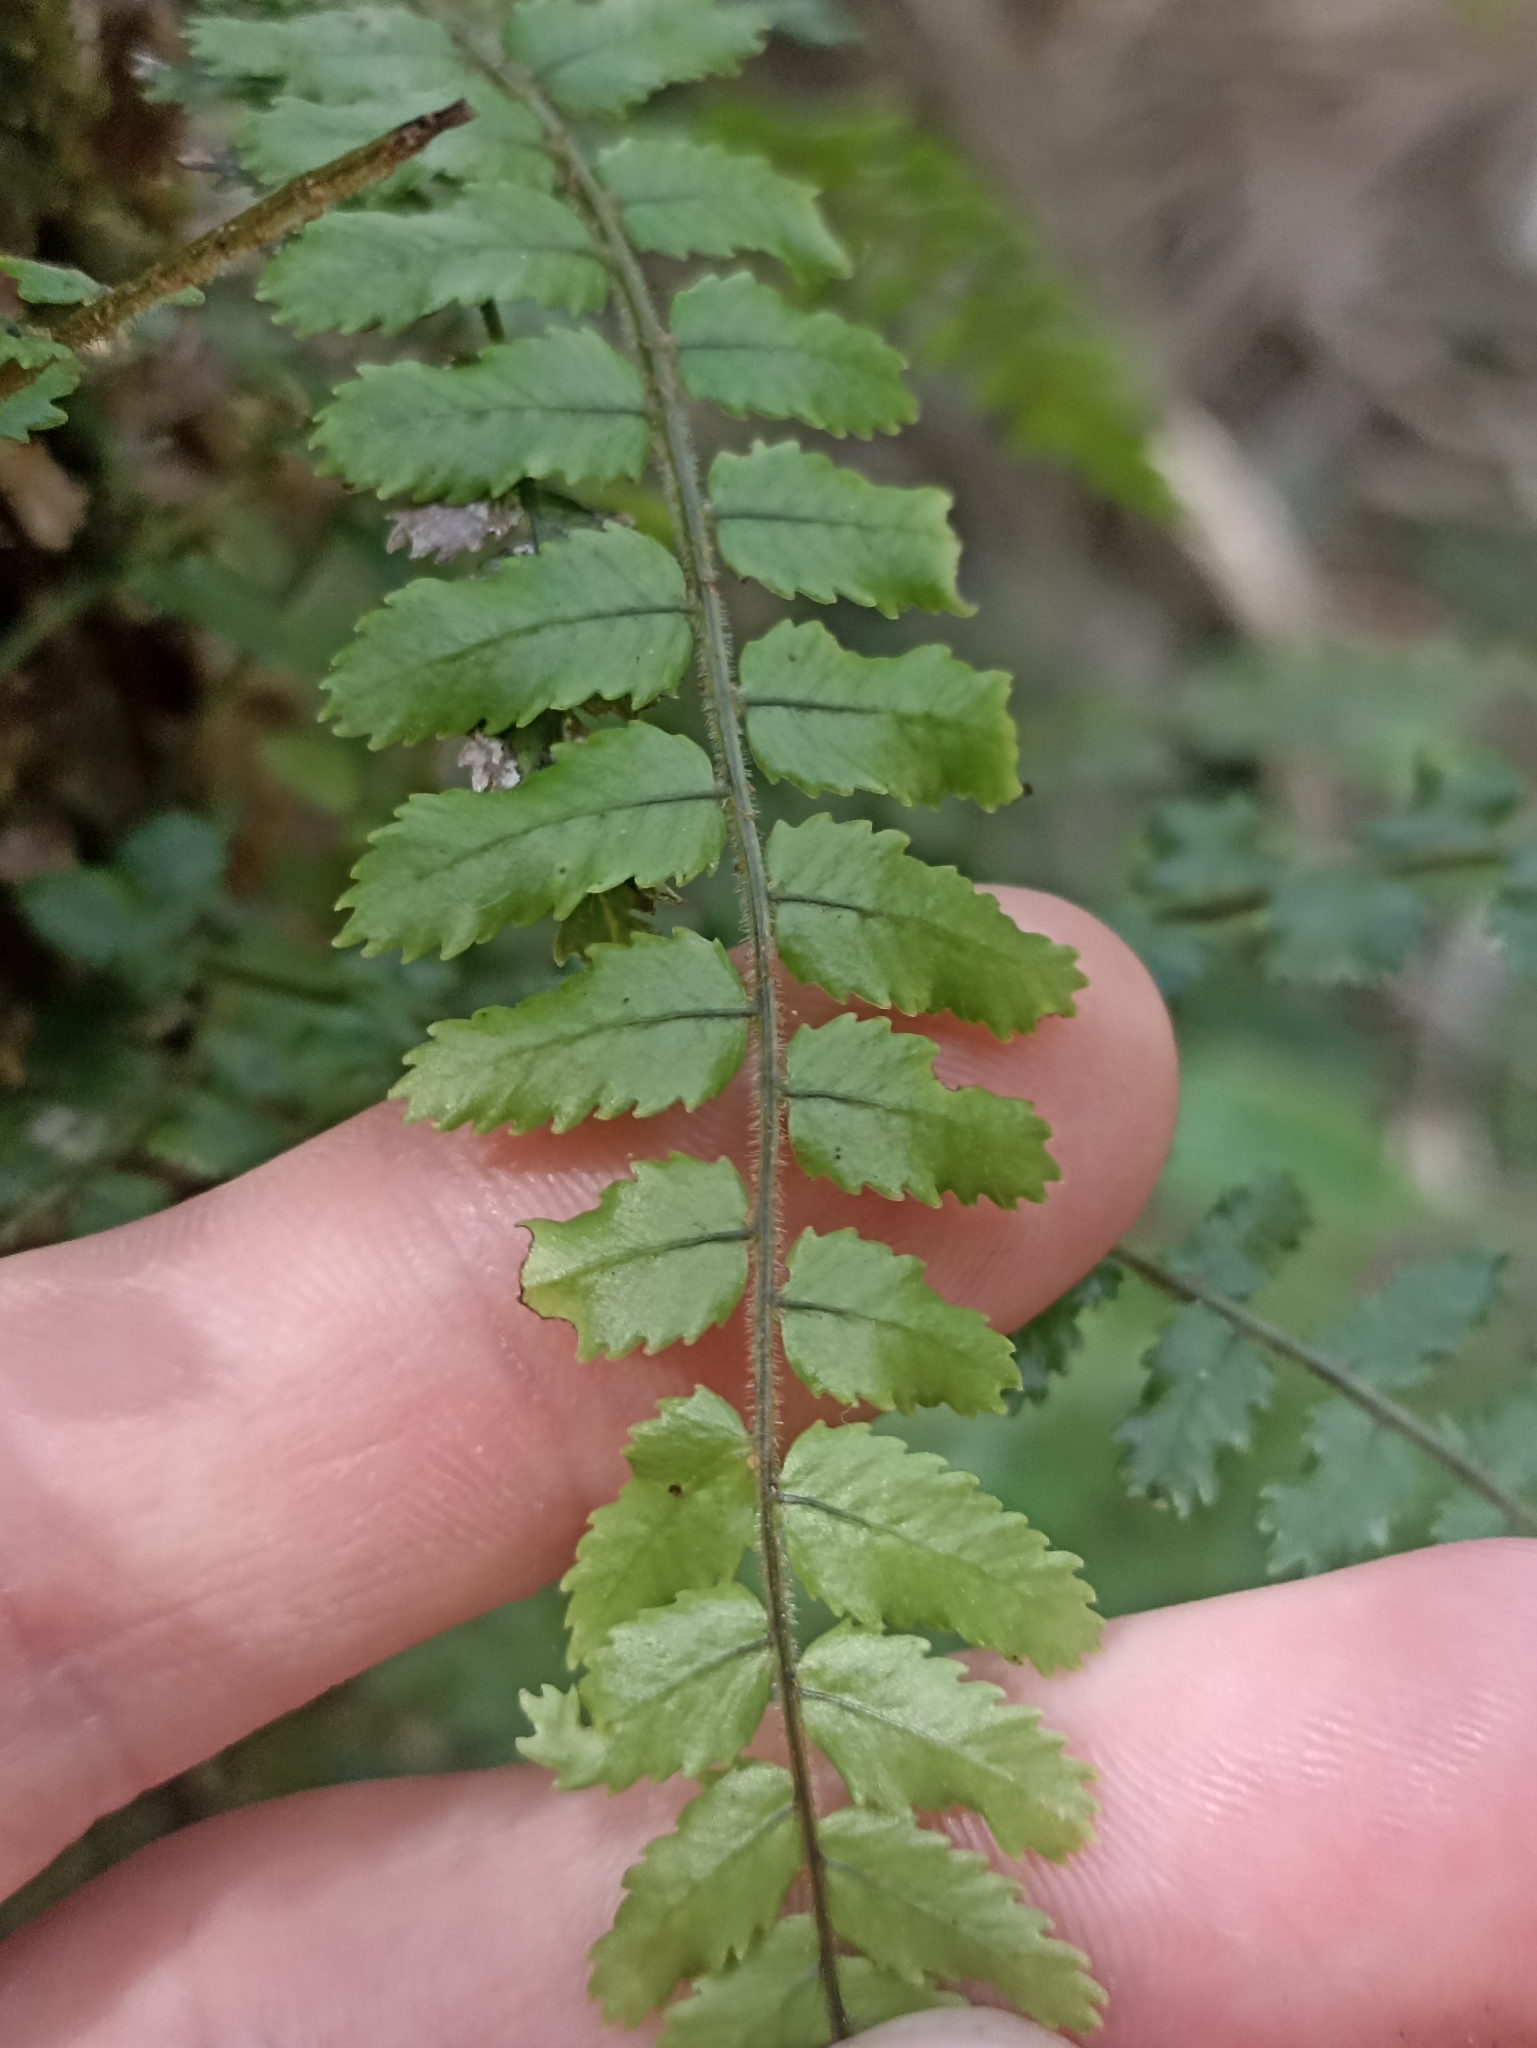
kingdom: Plantae
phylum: Tracheophyta
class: Polypodiopsida
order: Polypodiales
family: Blechnaceae
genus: Icarus
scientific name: Icarus filiformis
